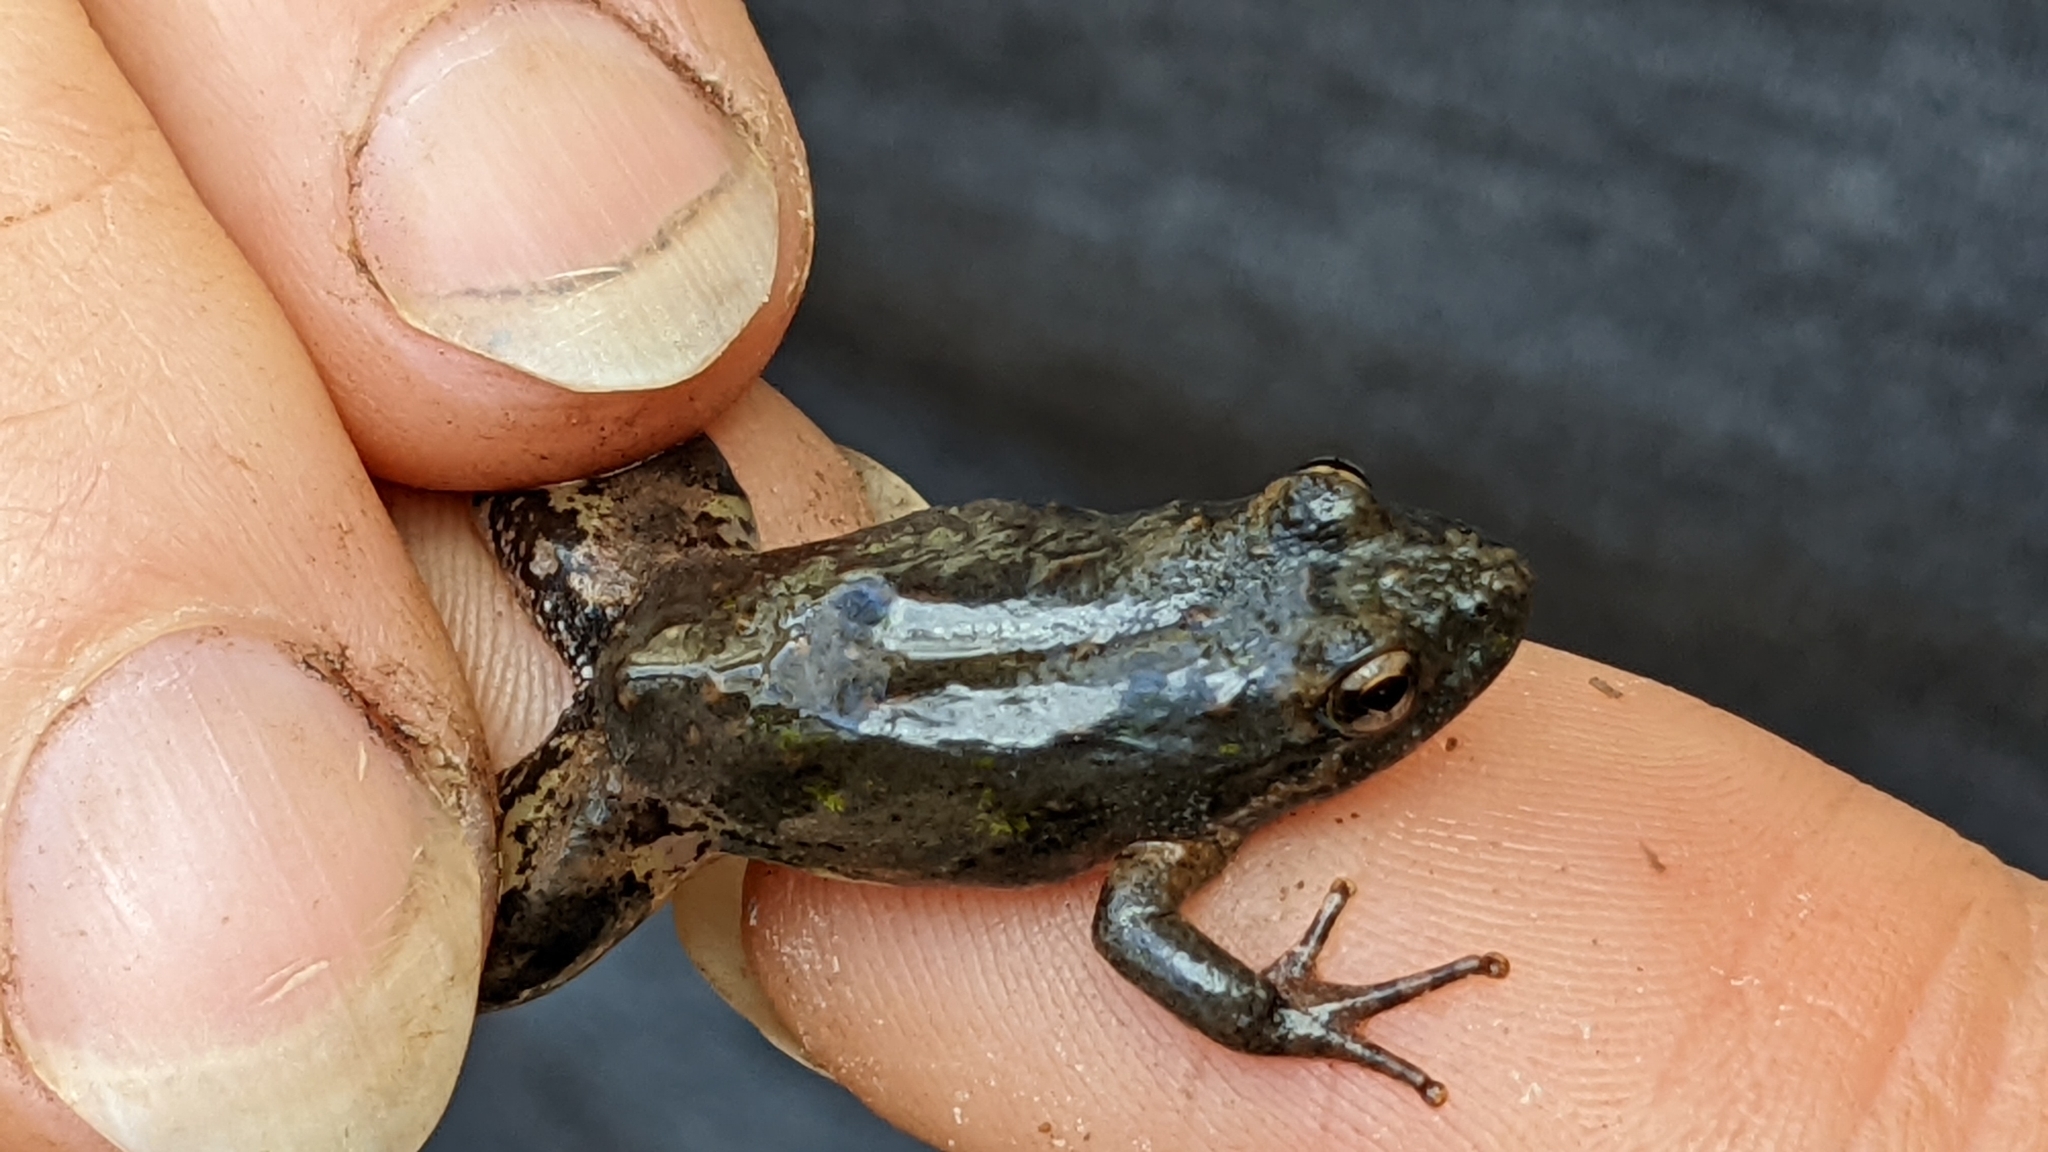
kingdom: Animalia
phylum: Chordata
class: Amphibia
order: Anura
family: Hylidae
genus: Acris
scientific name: Acris blanchardi
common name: Blanchard's cricket frog
